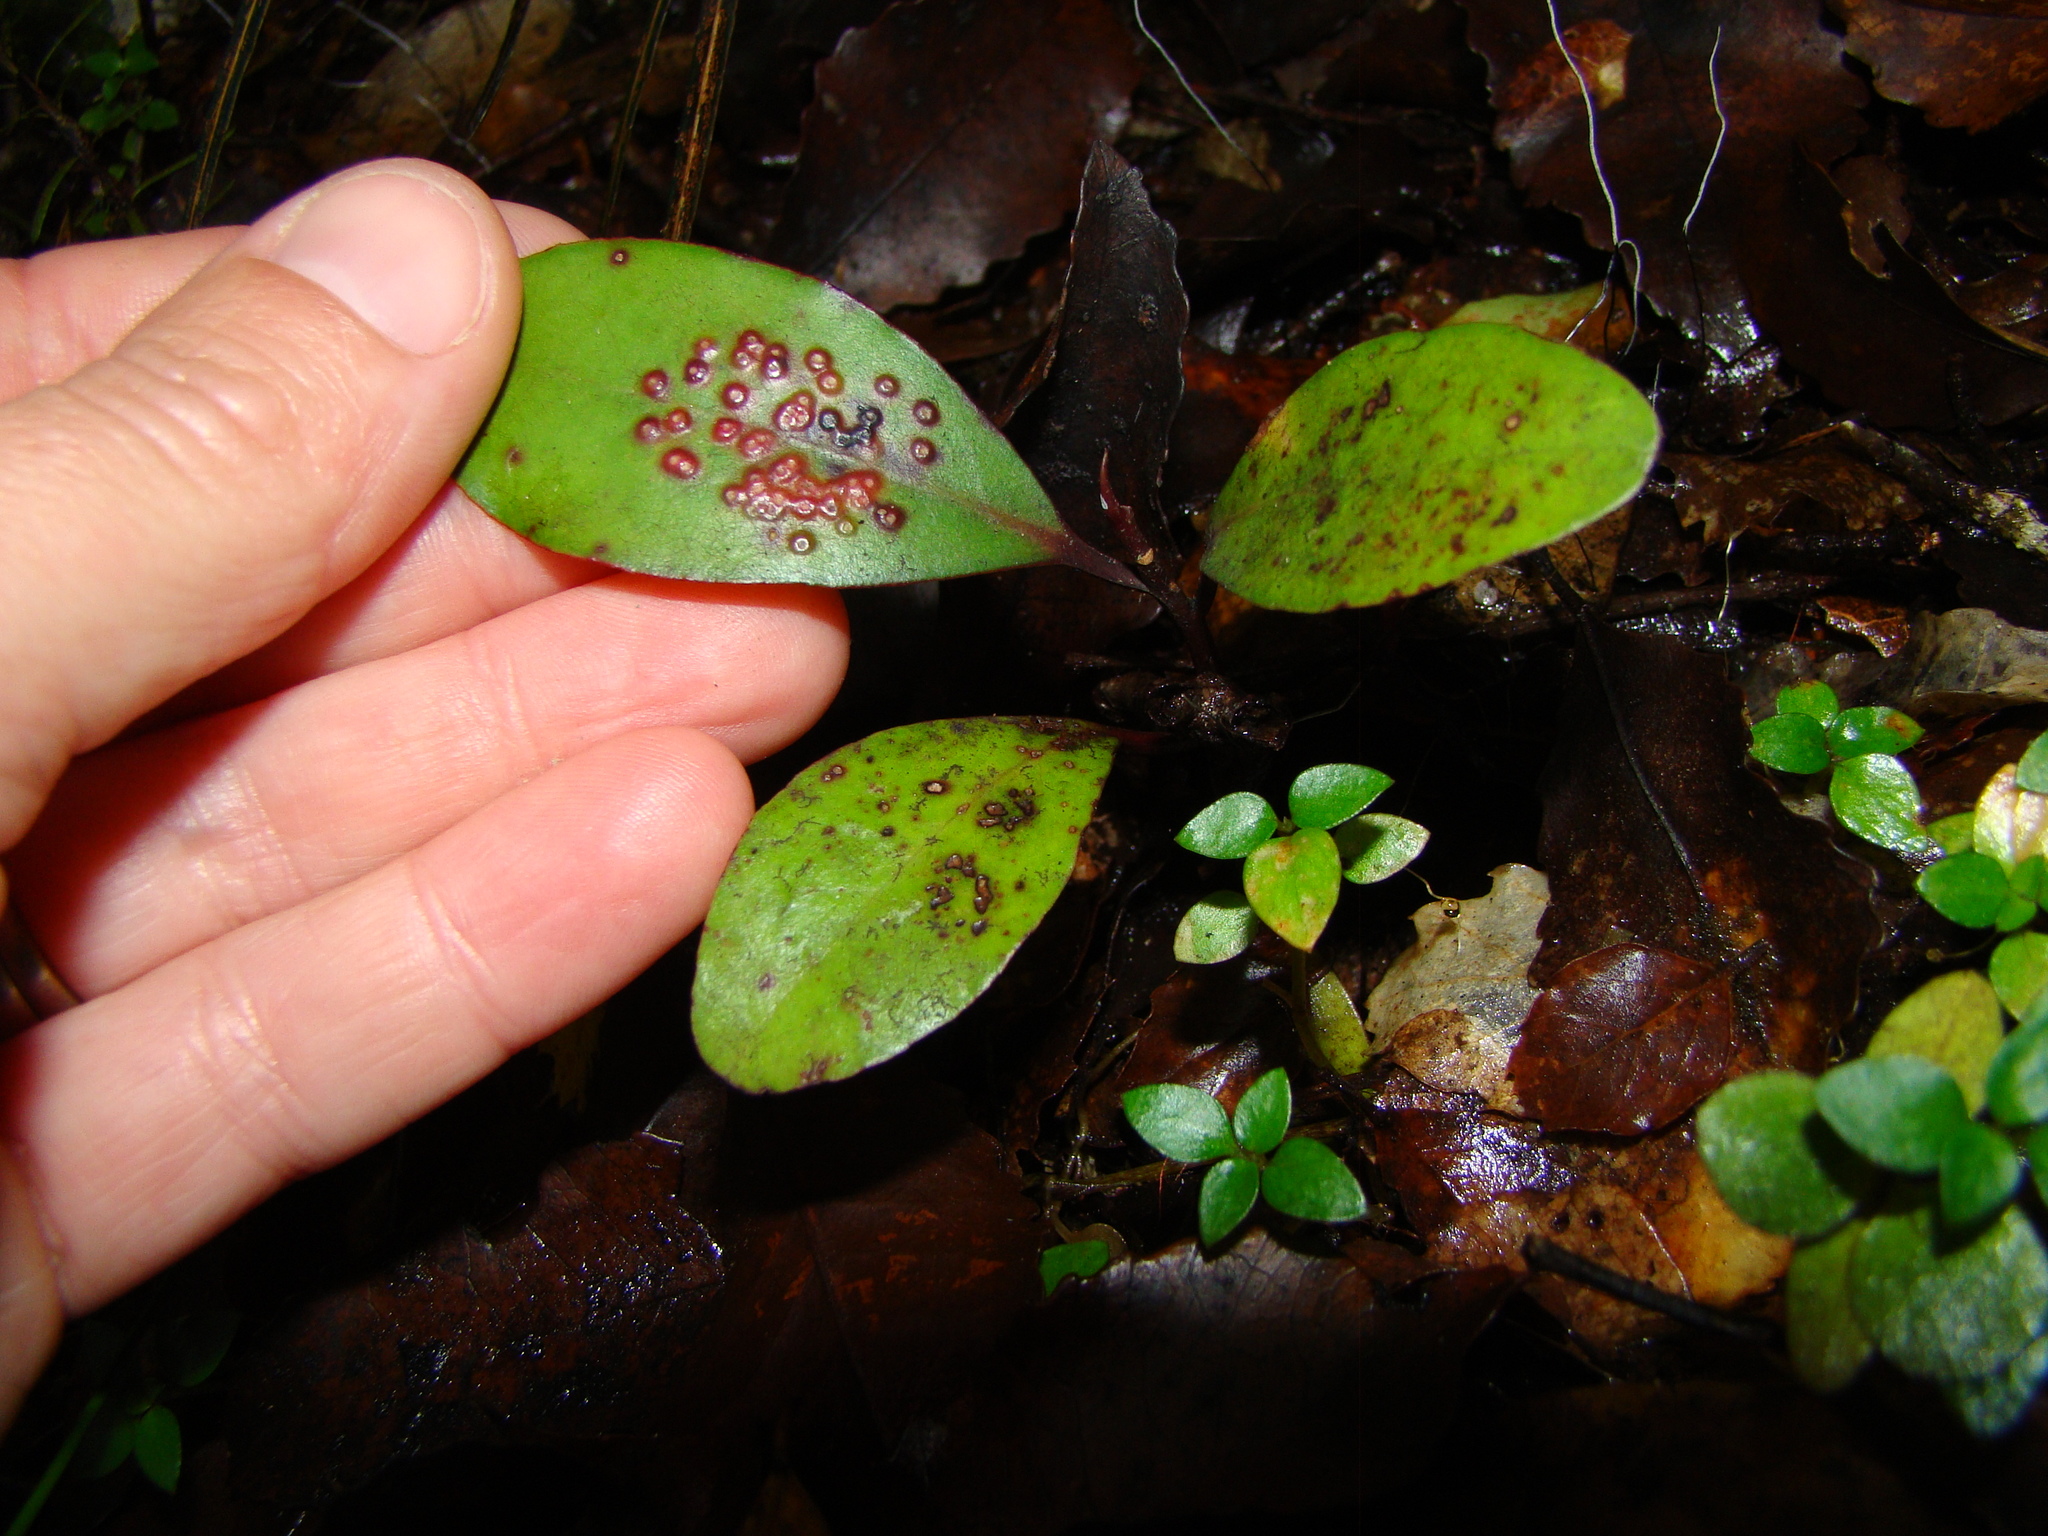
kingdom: Plantae
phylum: Tracheophyta
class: Magnoliopsida
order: Canellales
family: Winteraceae
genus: Pseudowintera
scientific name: Pseudowintera colorata
